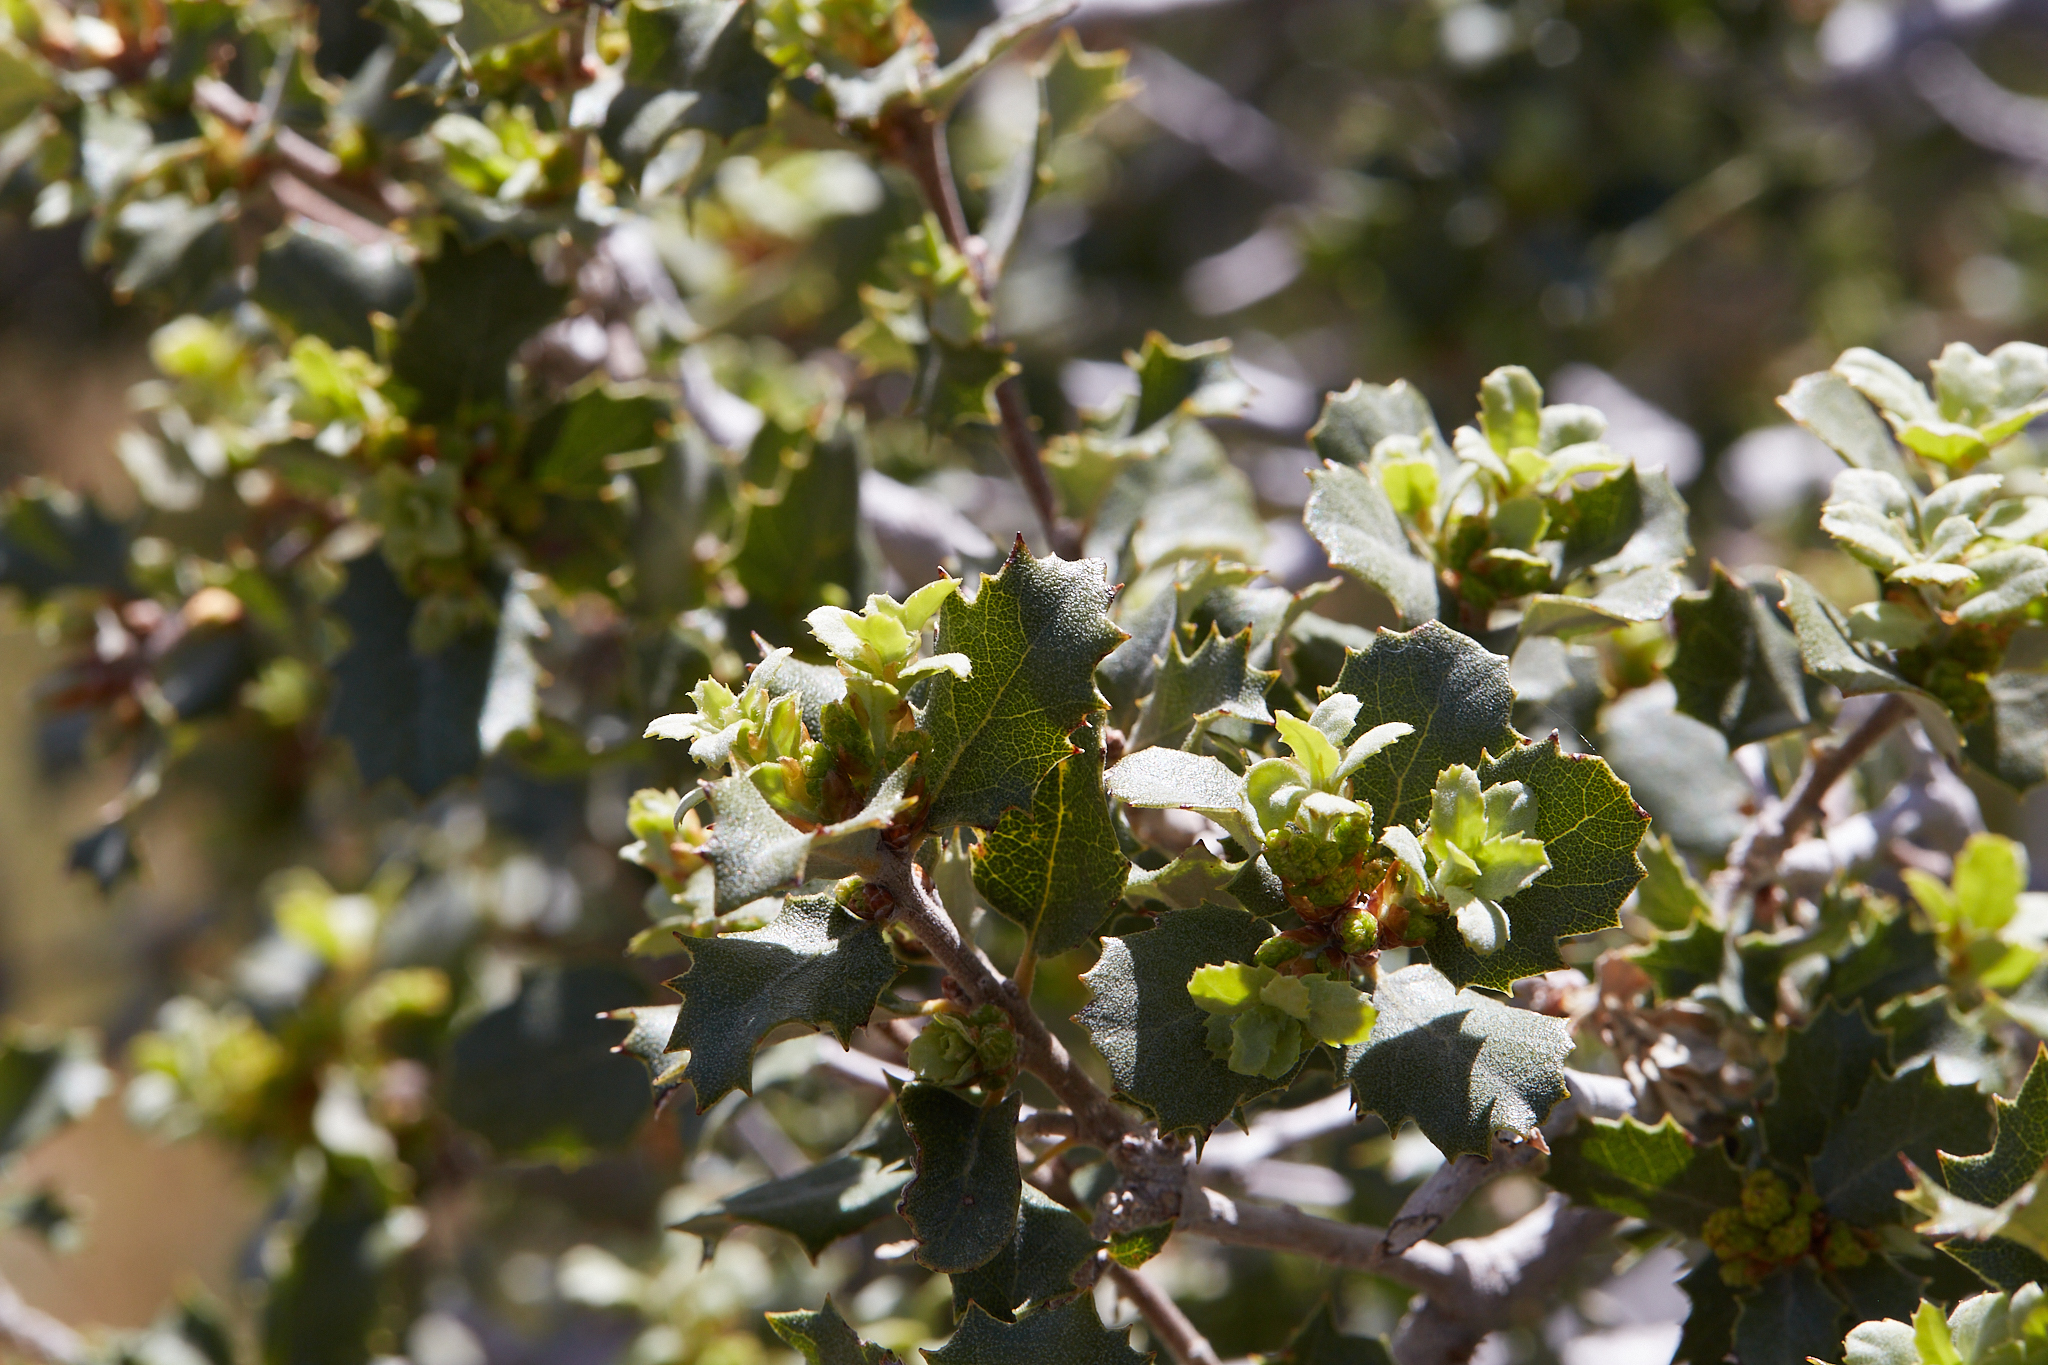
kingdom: Plantae
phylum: Tracheophyta
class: Magnoliopsida
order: Fagales
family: Fagaceae
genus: Quercus
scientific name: Quercus cornelius-mulleri
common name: Muller oak
